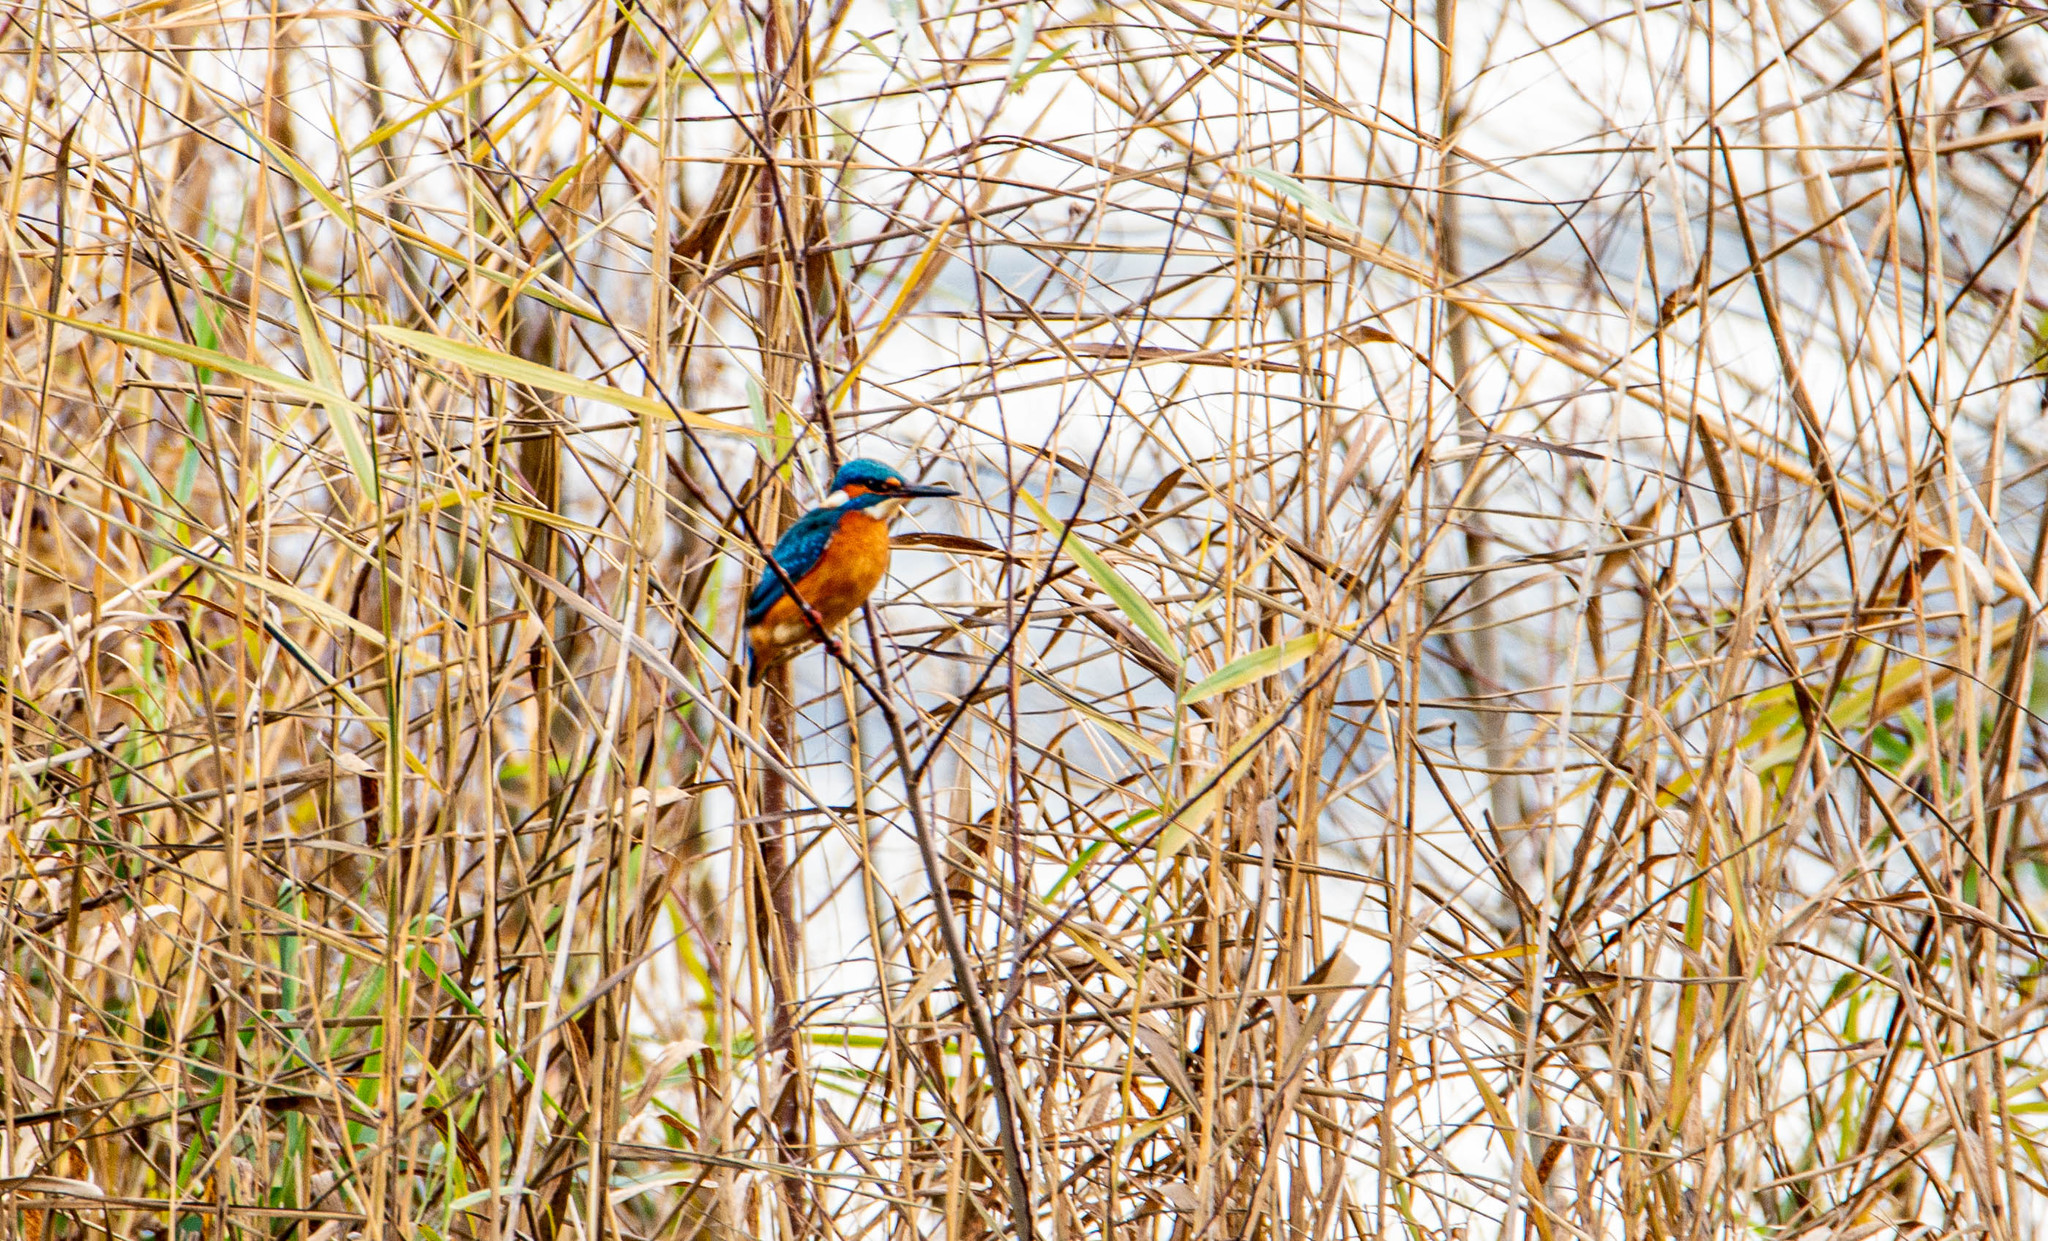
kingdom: Animalia
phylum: Chordata
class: Aves
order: Coraciiformes
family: Alcedinidae
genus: Alcedo
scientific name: Alcedo atthis
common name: Common kingfisher
